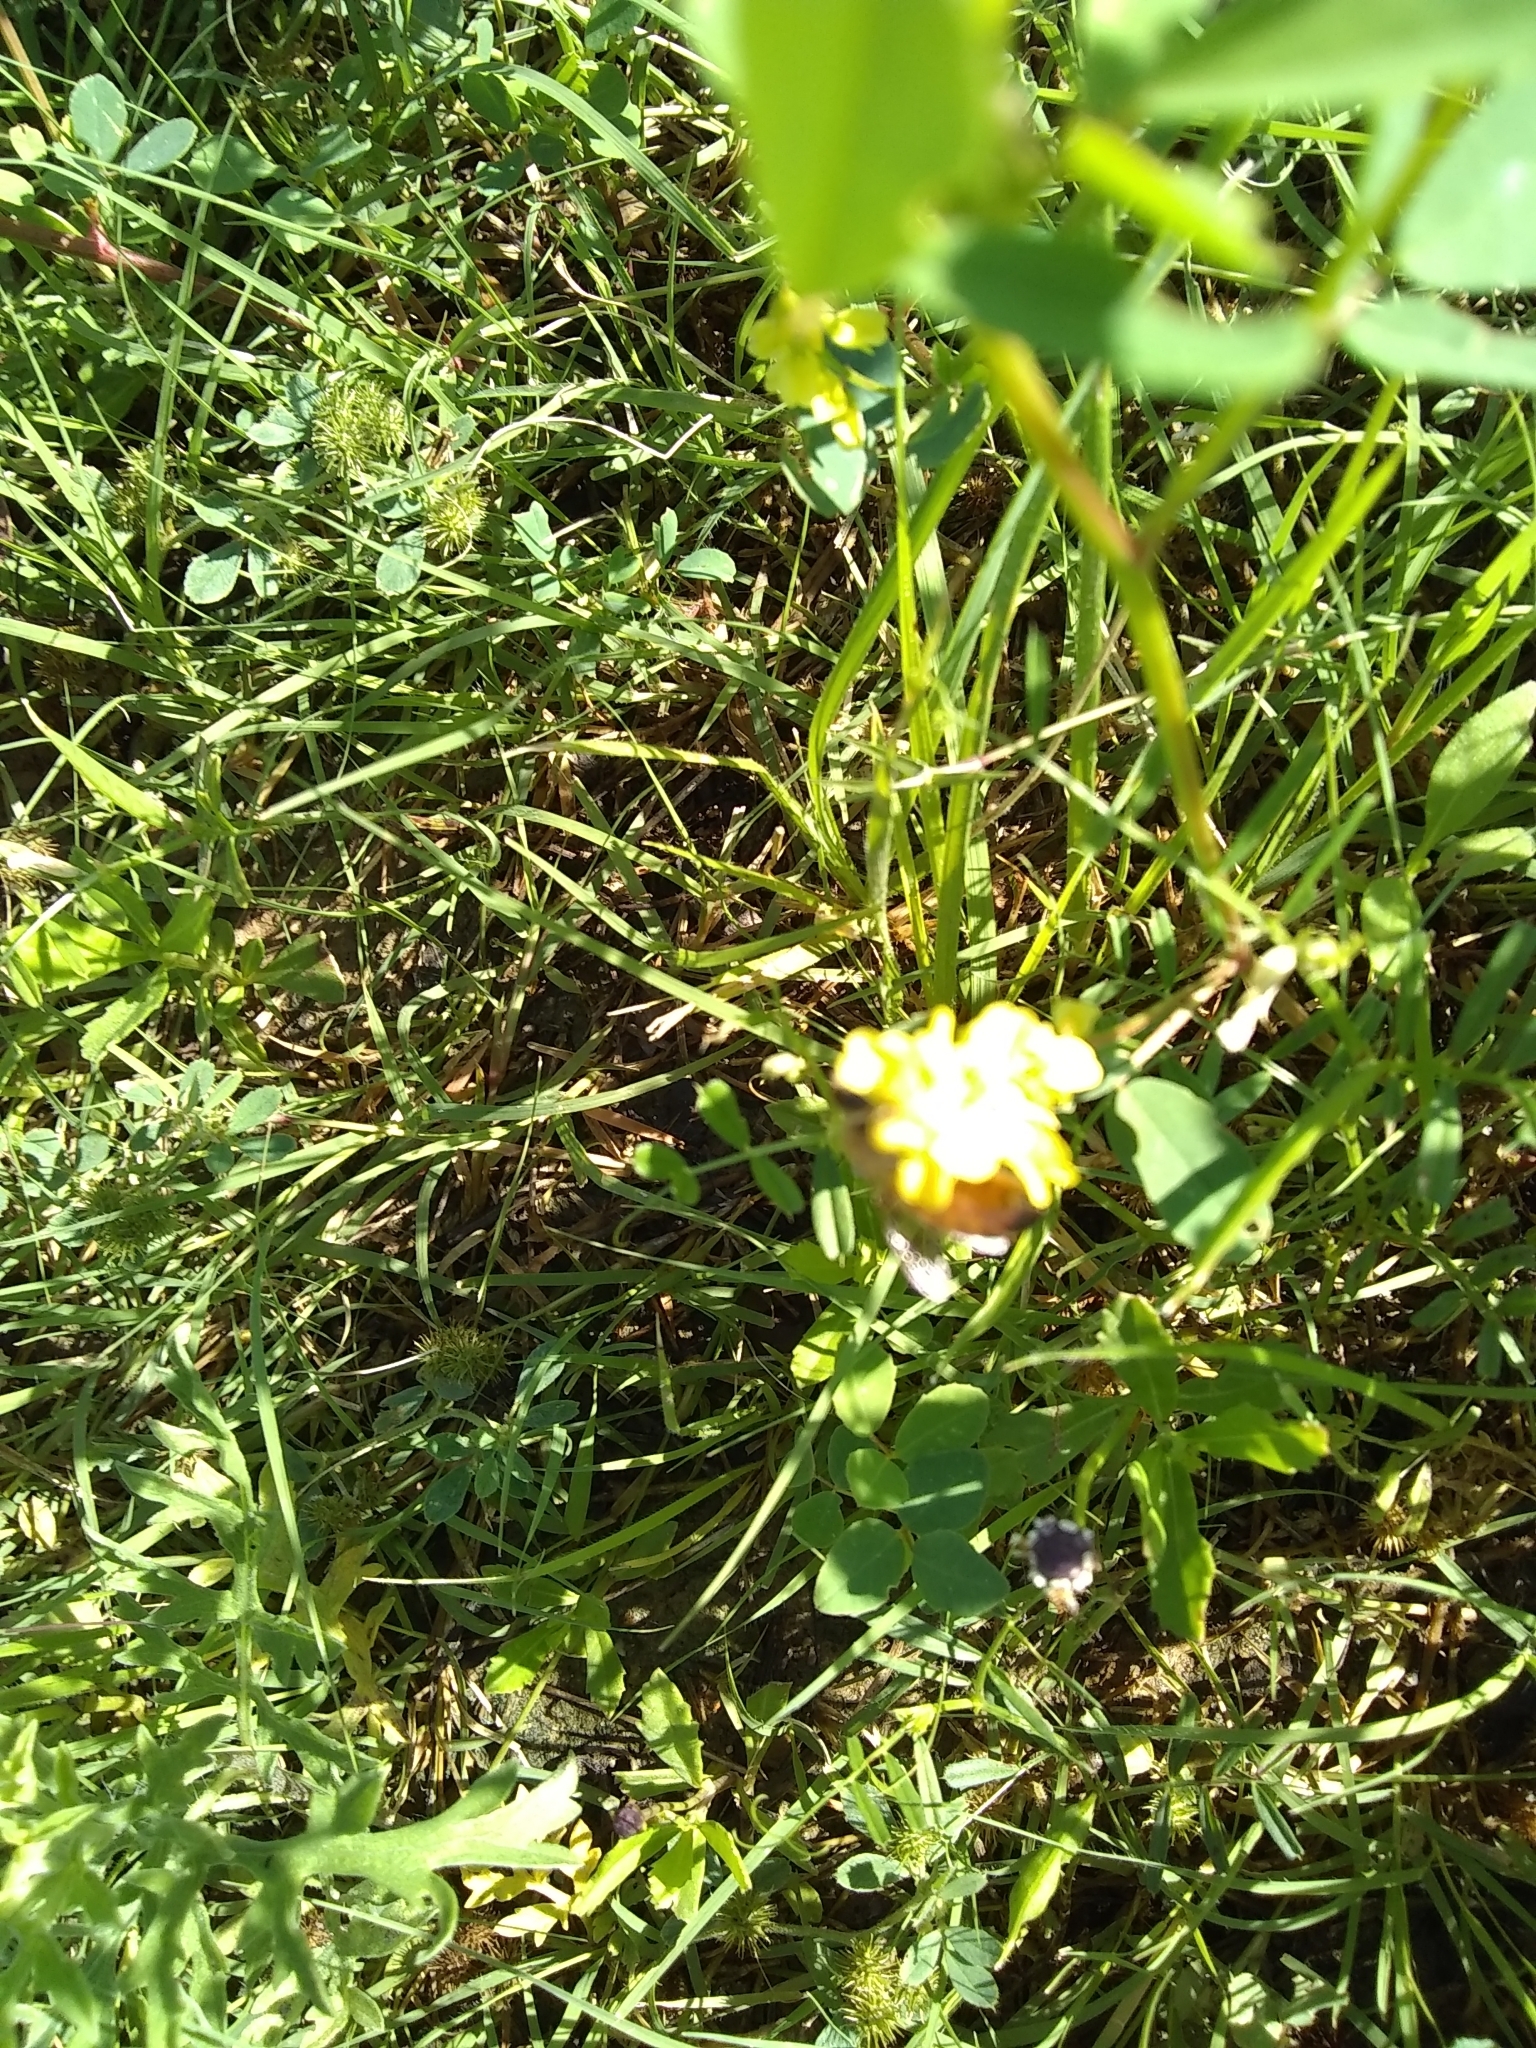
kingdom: Animalia
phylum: Arthropoda
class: Insecta
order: Hymenoptera
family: Apidae
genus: Apis
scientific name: Apis mellifera
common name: Honey bee
